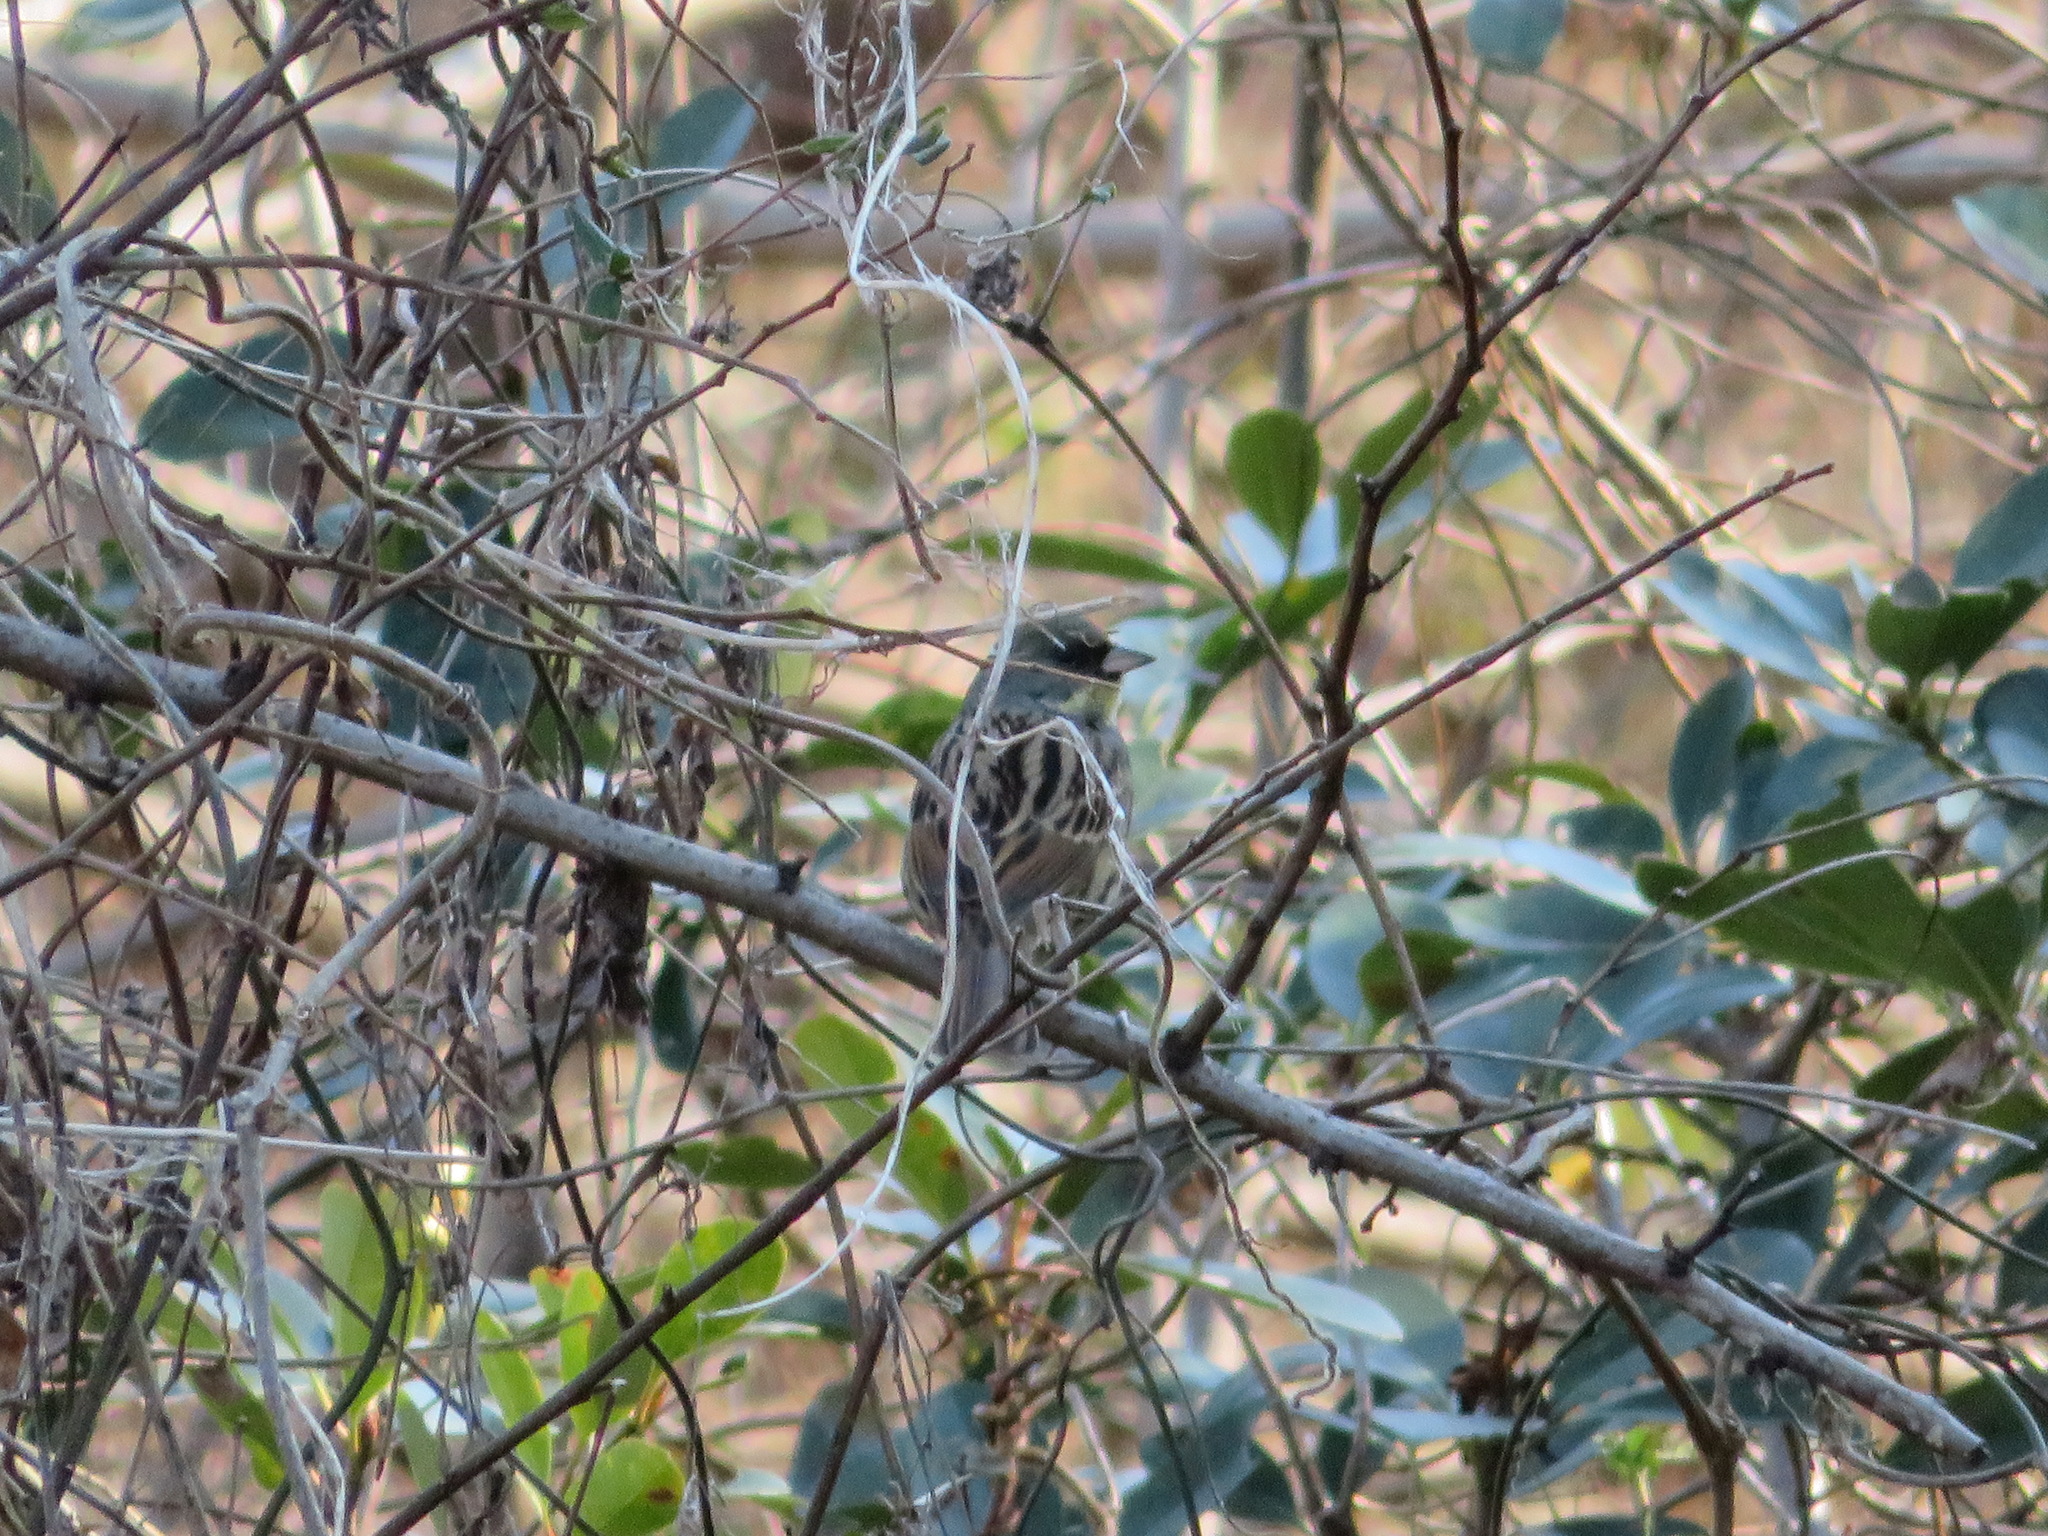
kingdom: Animalia
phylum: Chordata
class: Aves
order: Passeriformes
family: Emberizidae
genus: Emberiza
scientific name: Emberiza personata
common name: Masked bunting
